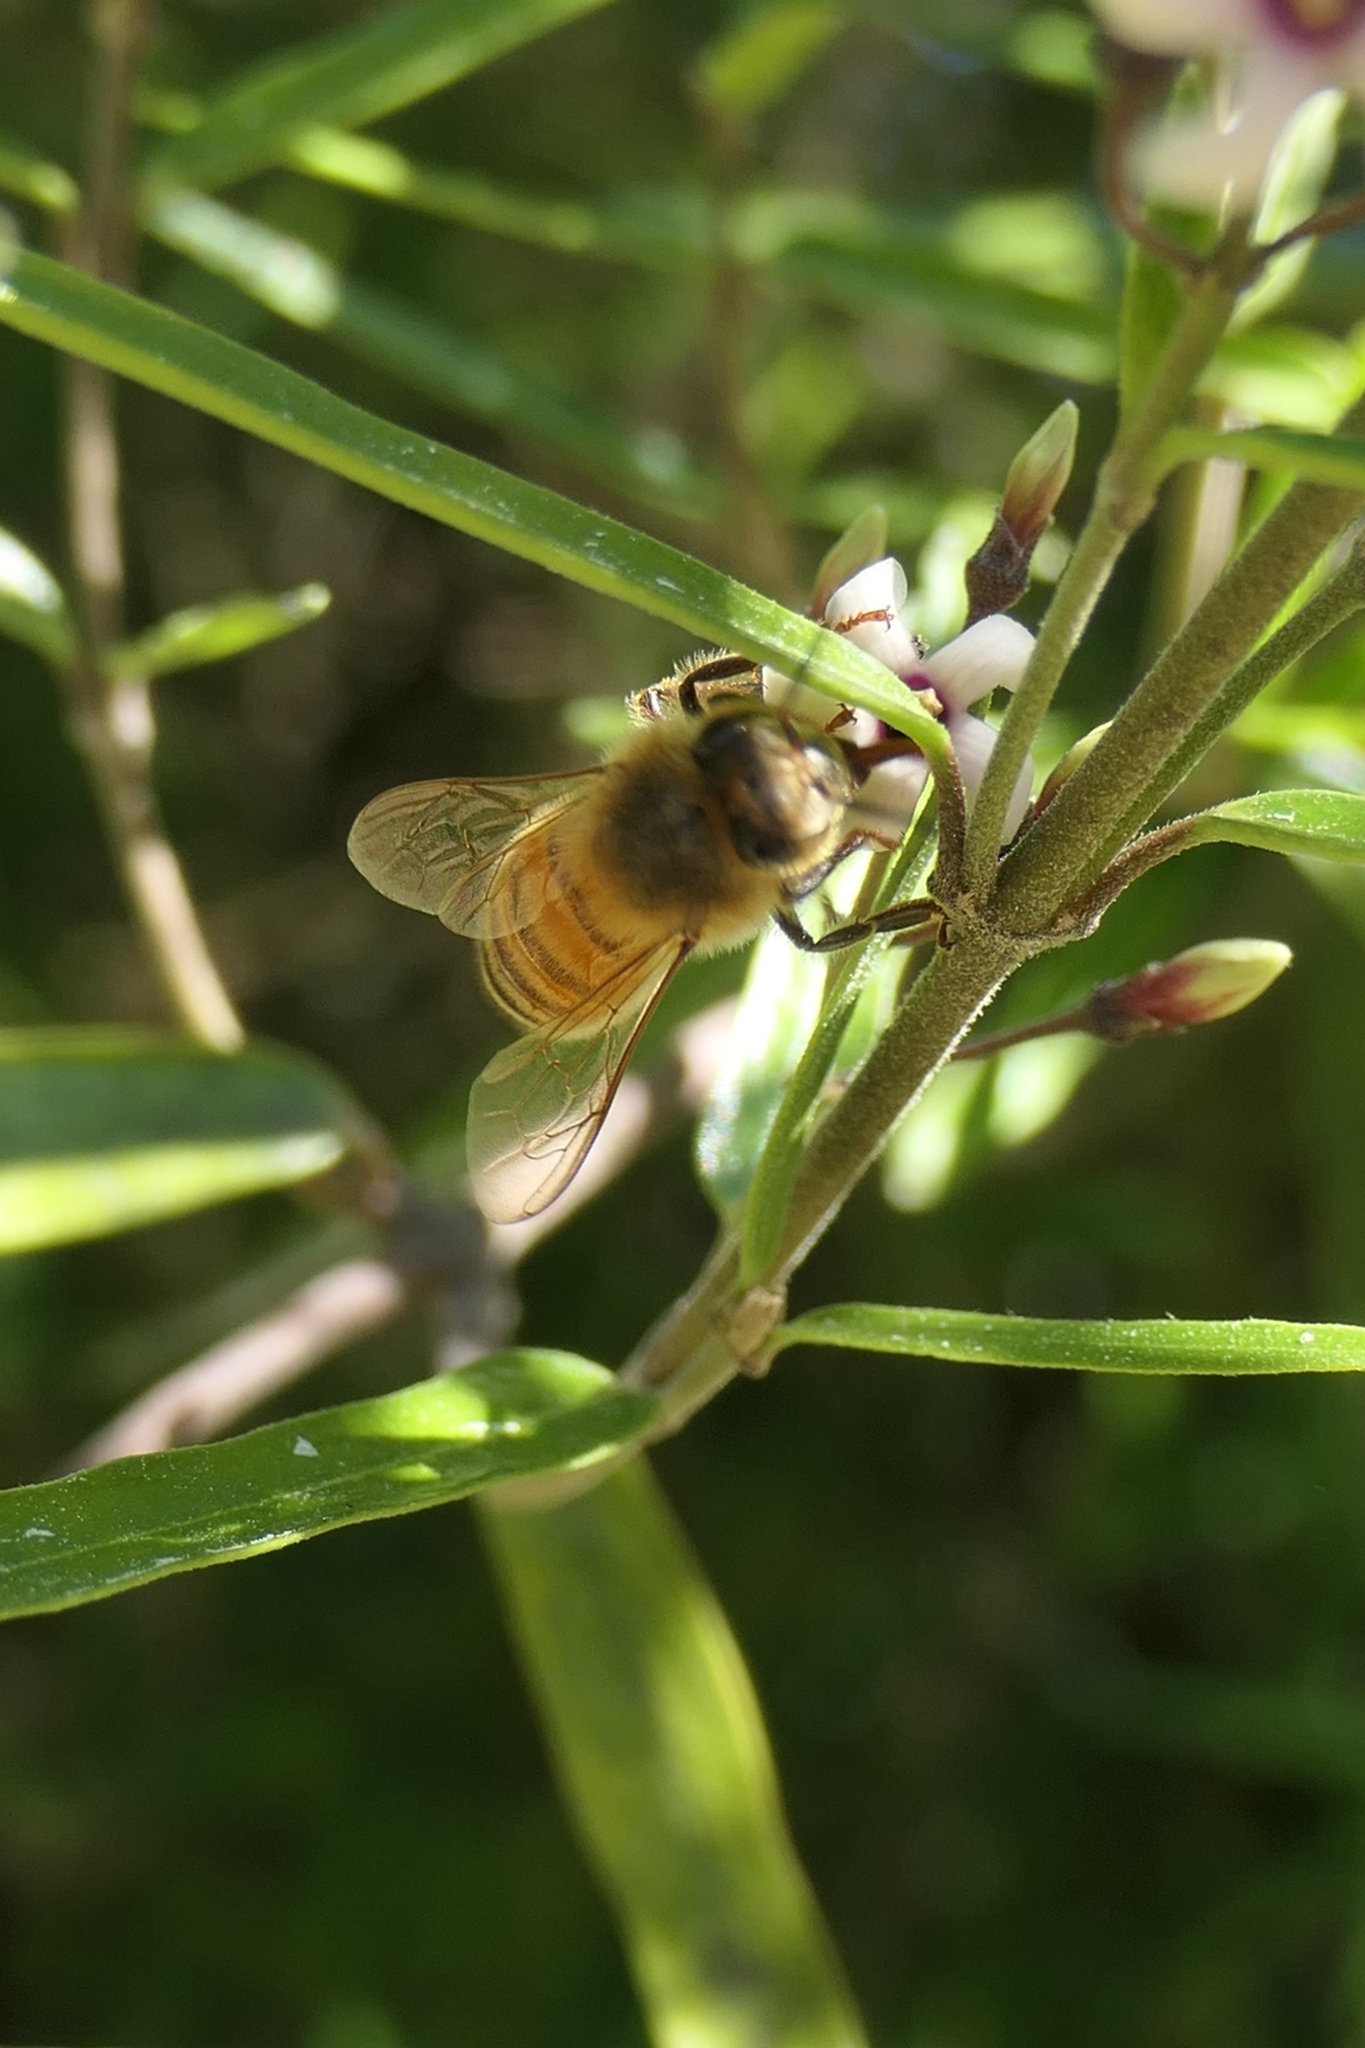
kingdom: Animalia
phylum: Arthropoda
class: Insecta
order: Hymenoptera
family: Apidae
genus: Apis
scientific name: Apis mellifera
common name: Honey bee
